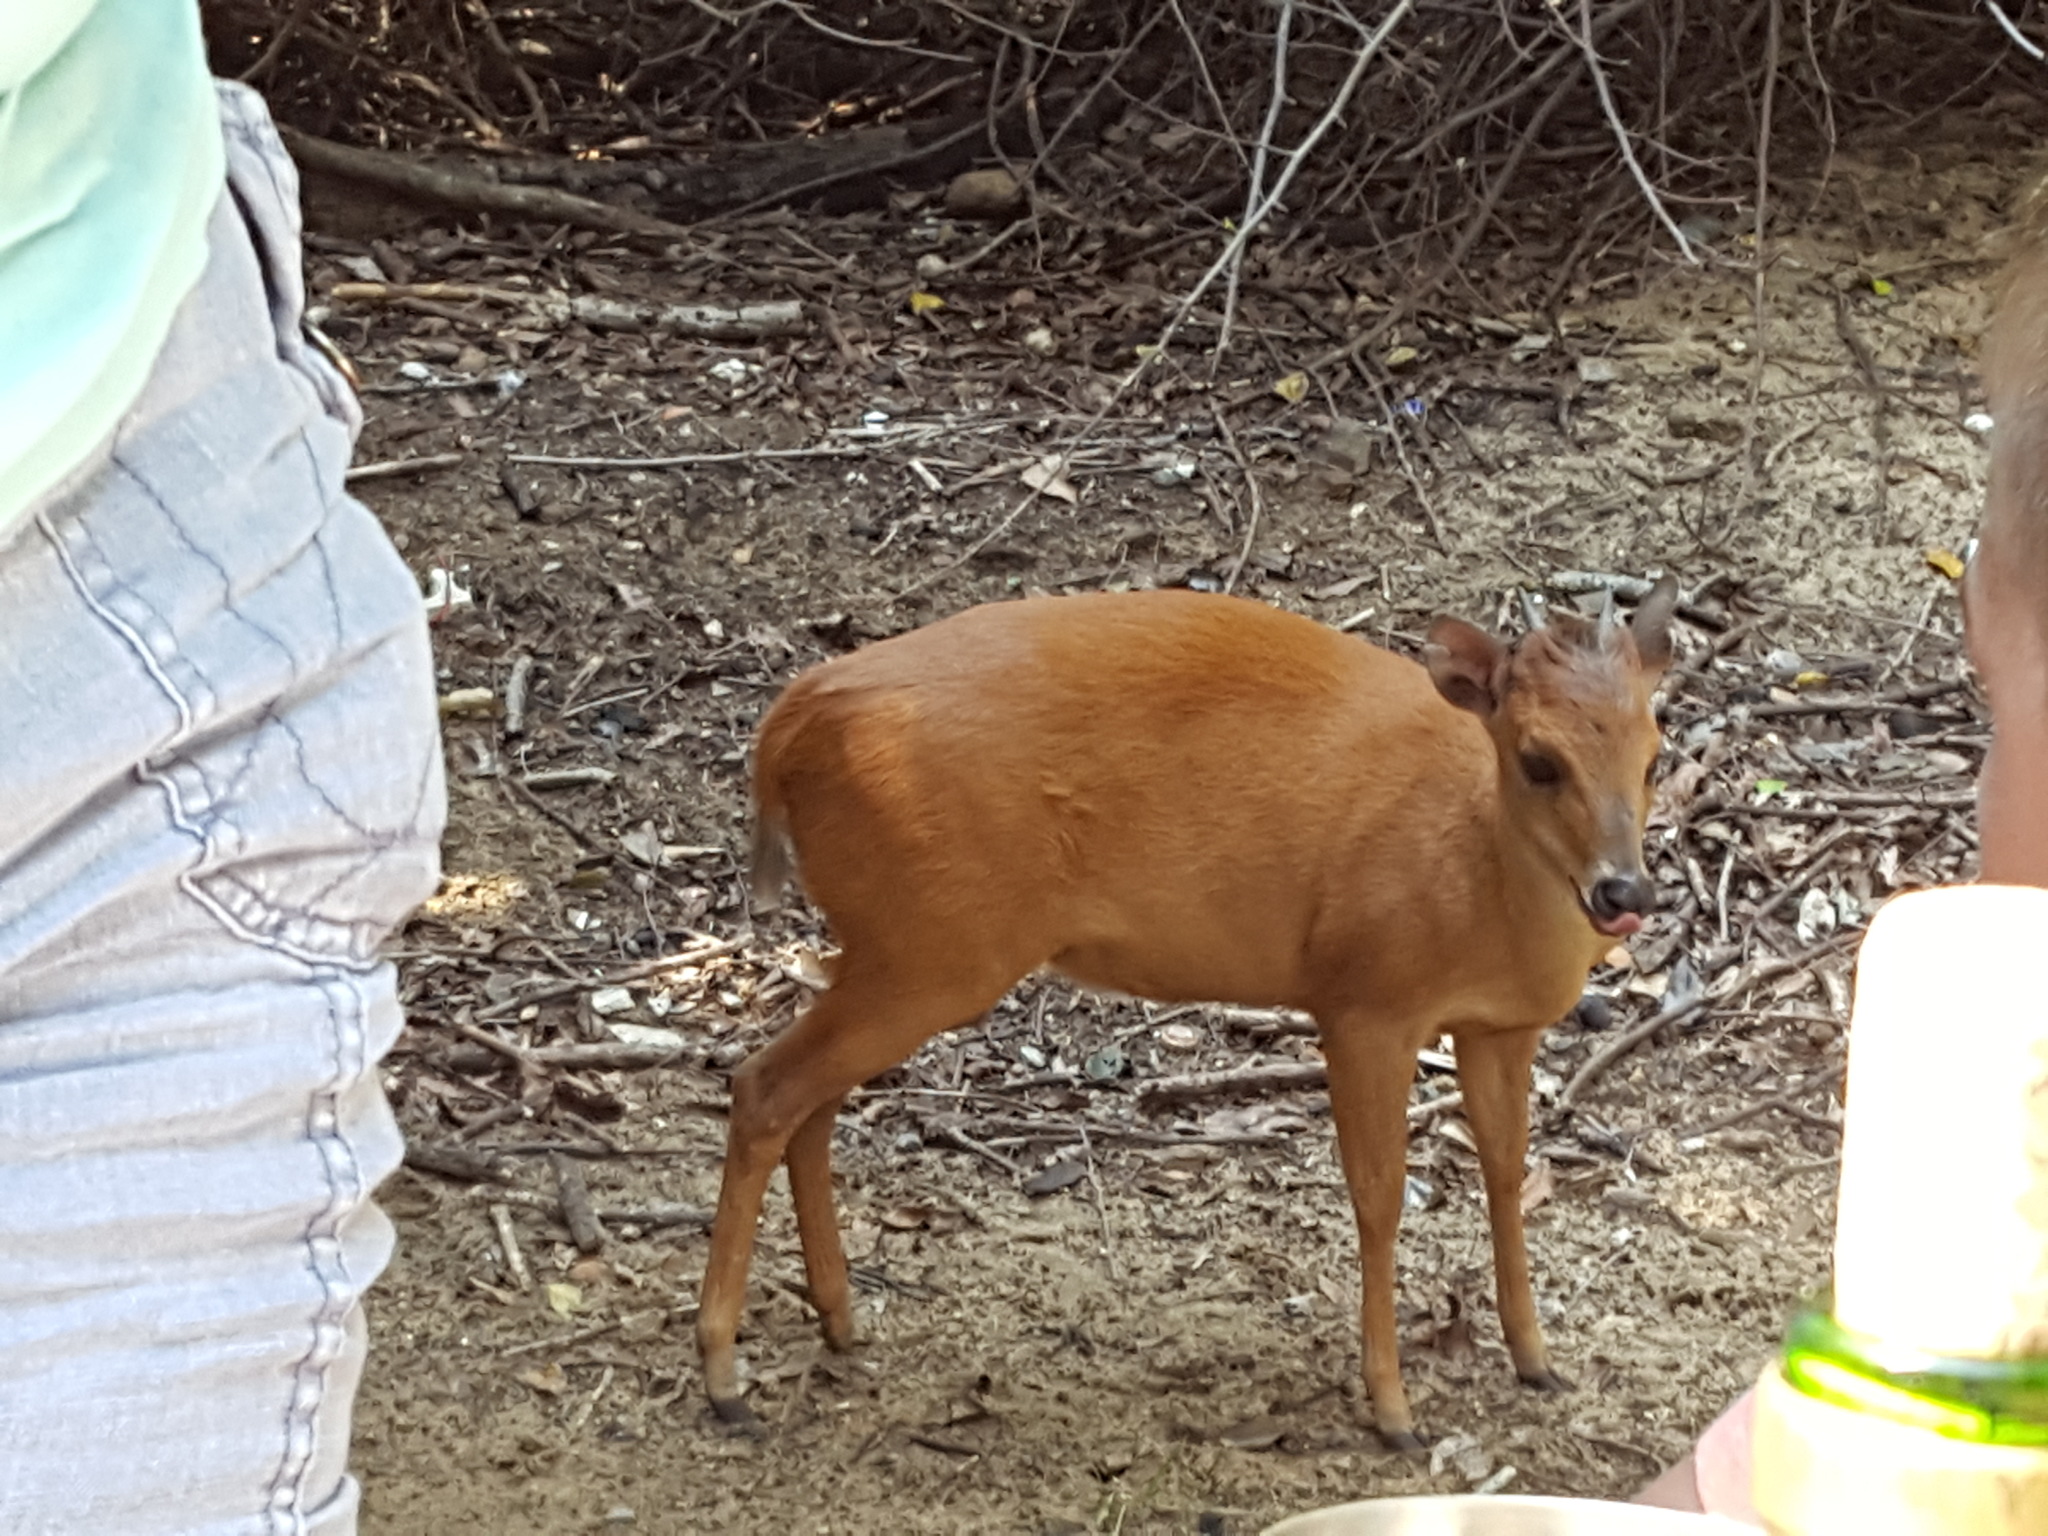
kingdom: Animalia
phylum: Chordata
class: Mammalia
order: Artiodactyla
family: Bovidae
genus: Cephalophus
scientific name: Cephalophus natalensis
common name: Red duiker
